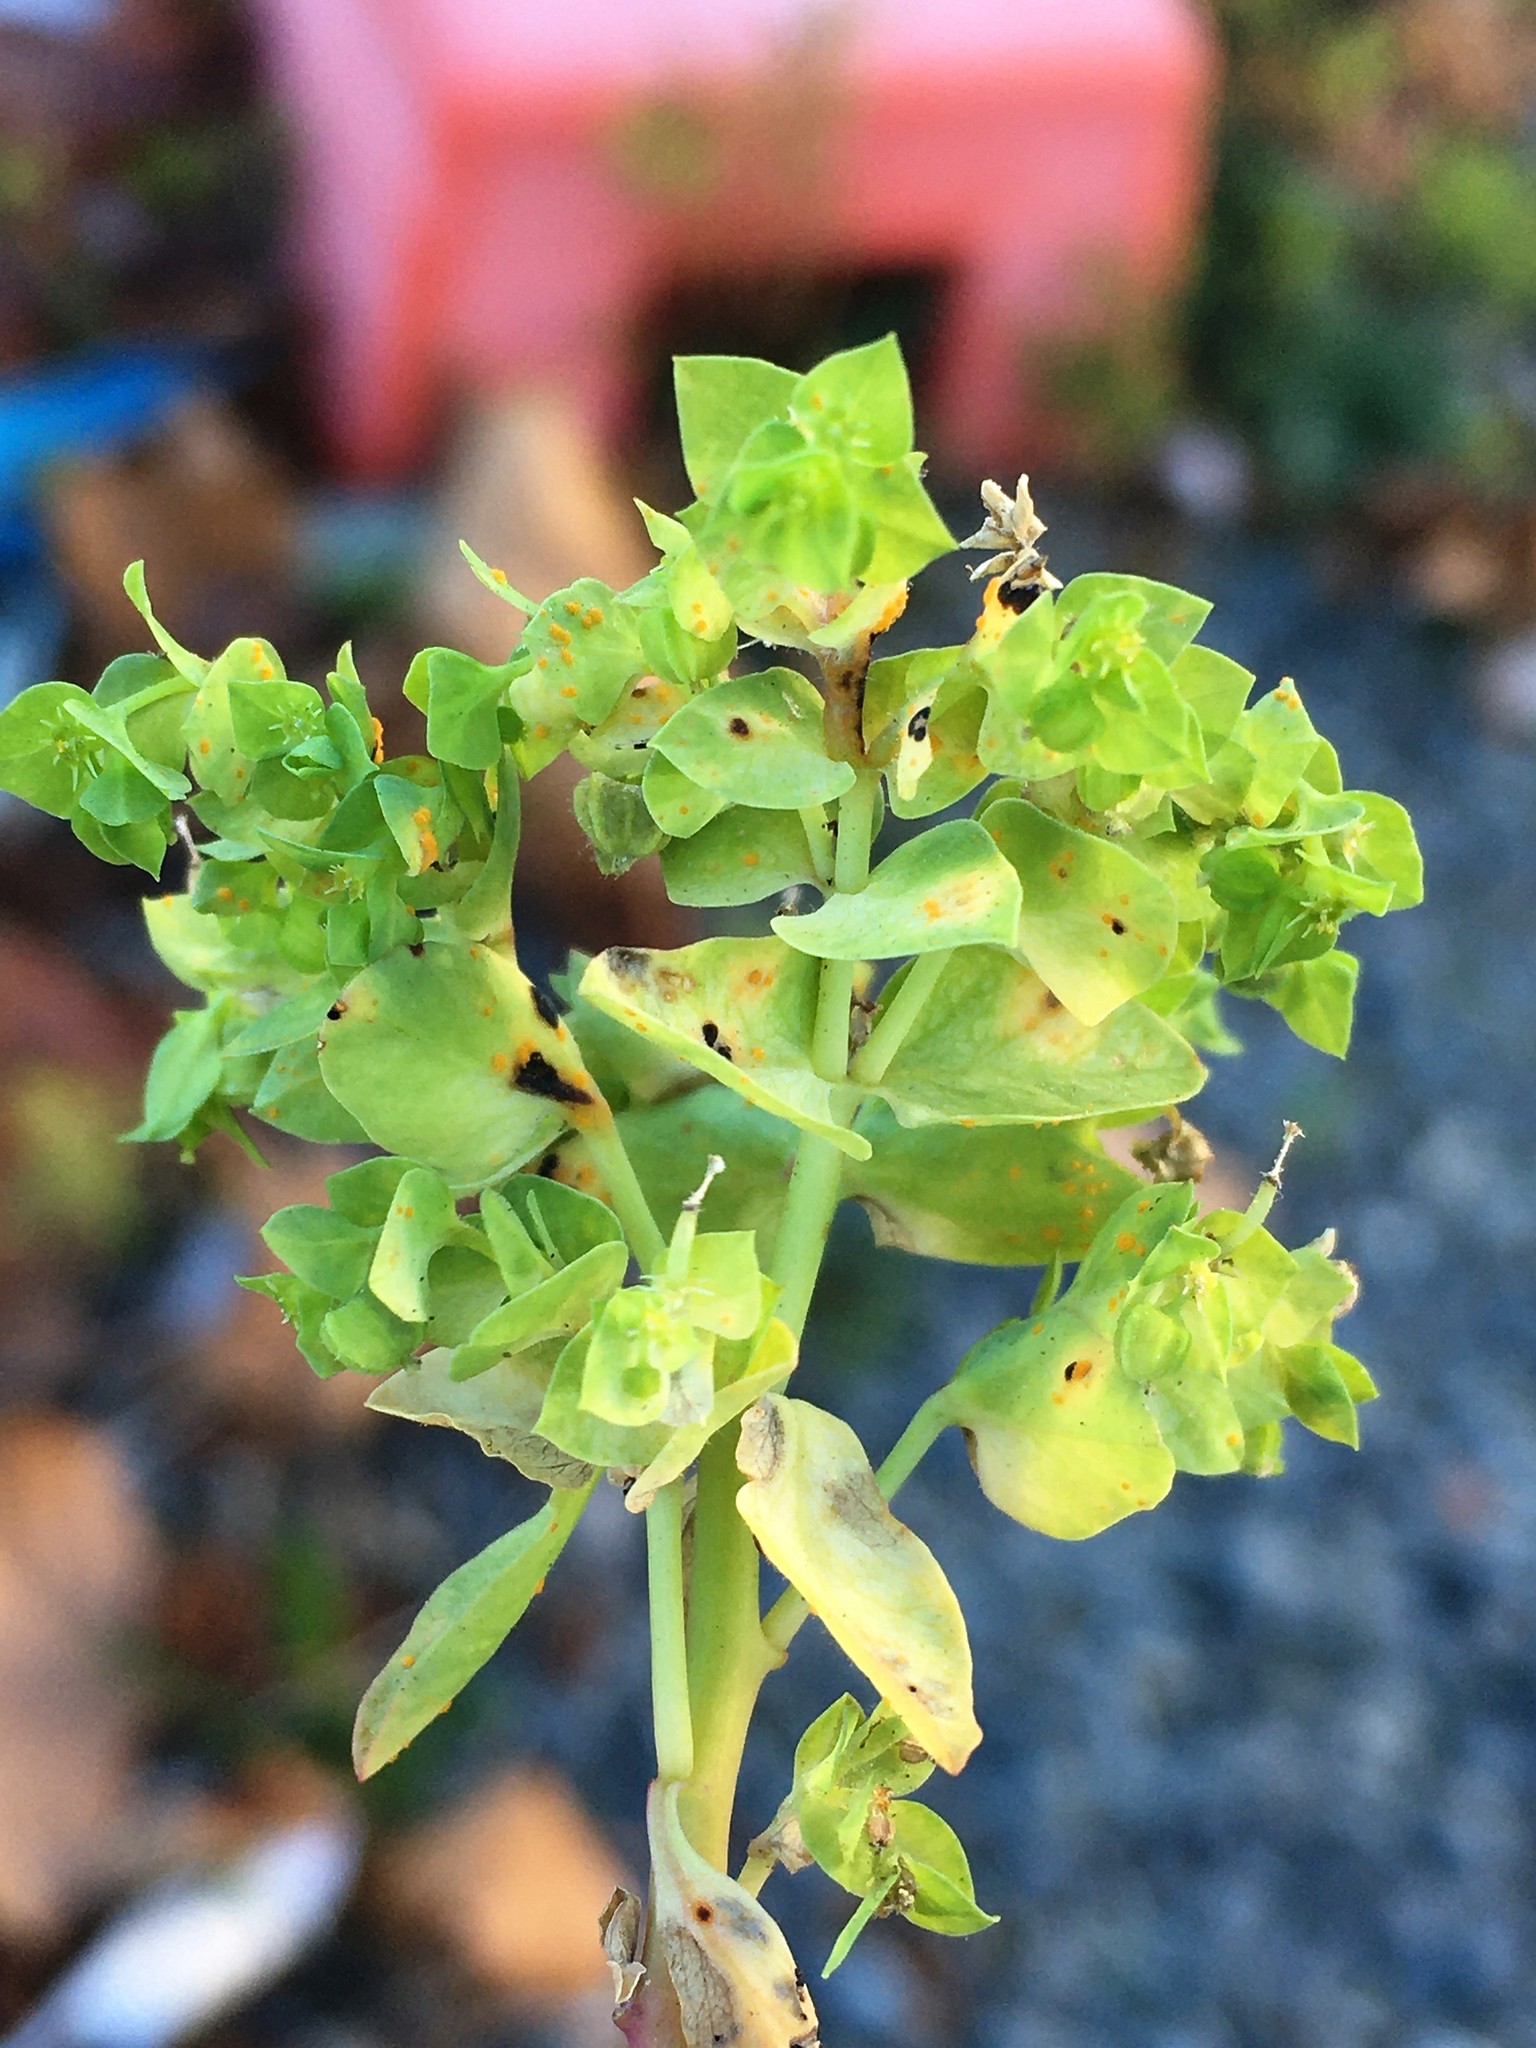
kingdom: Fungi
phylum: Basidiomycota
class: Pucciniomycetes
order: Pucciniales
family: Melampsoraceae
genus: Melampsora
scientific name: Melampsora euphorbiae
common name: Spurge rust
